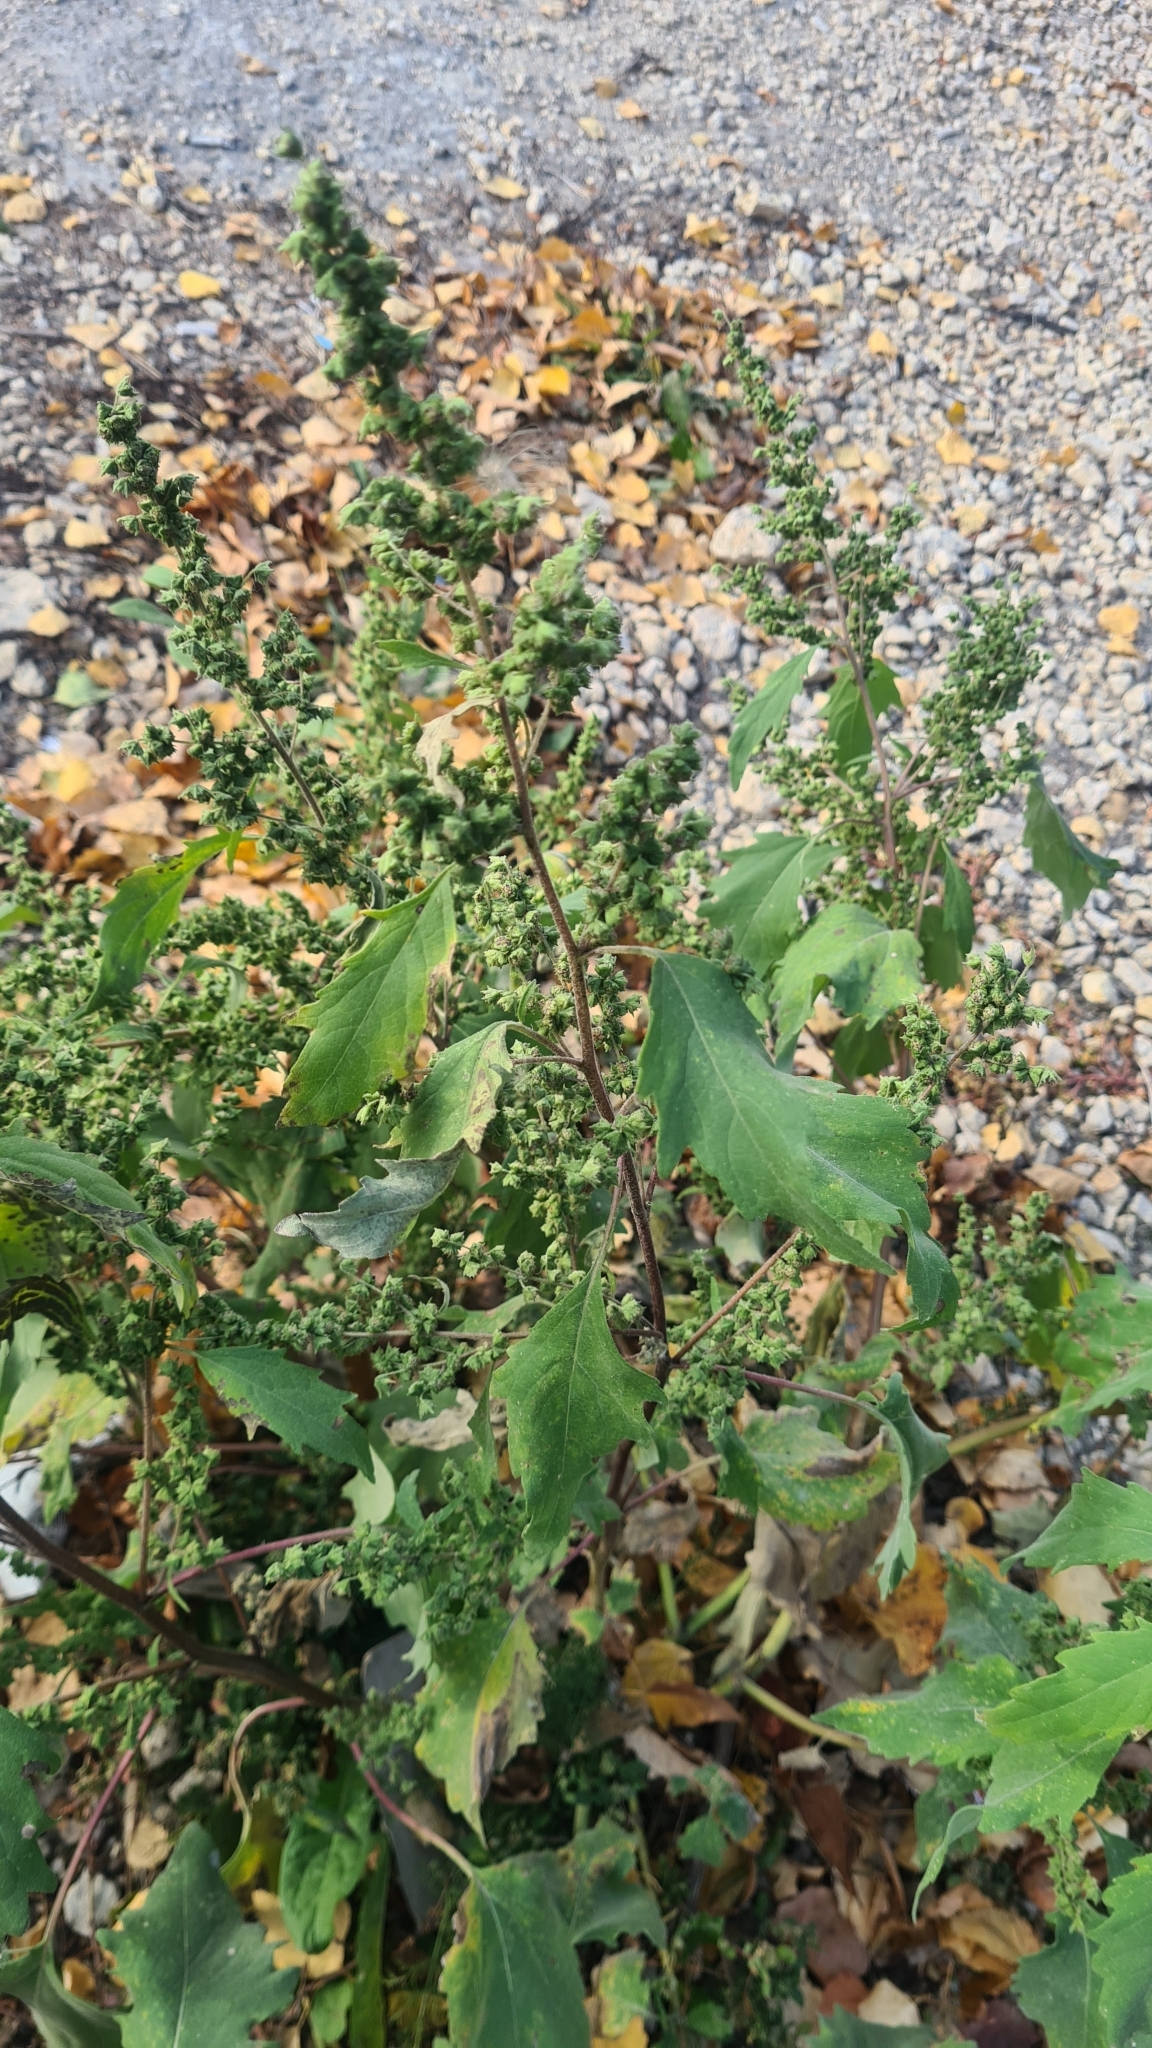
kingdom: Plantae
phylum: Tracheophyta
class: Magnoliopsida
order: Asterales
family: Asteraceae
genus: Cyclachaena
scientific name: Cyclachaena xanthiifolia
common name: Giant sumpweed
